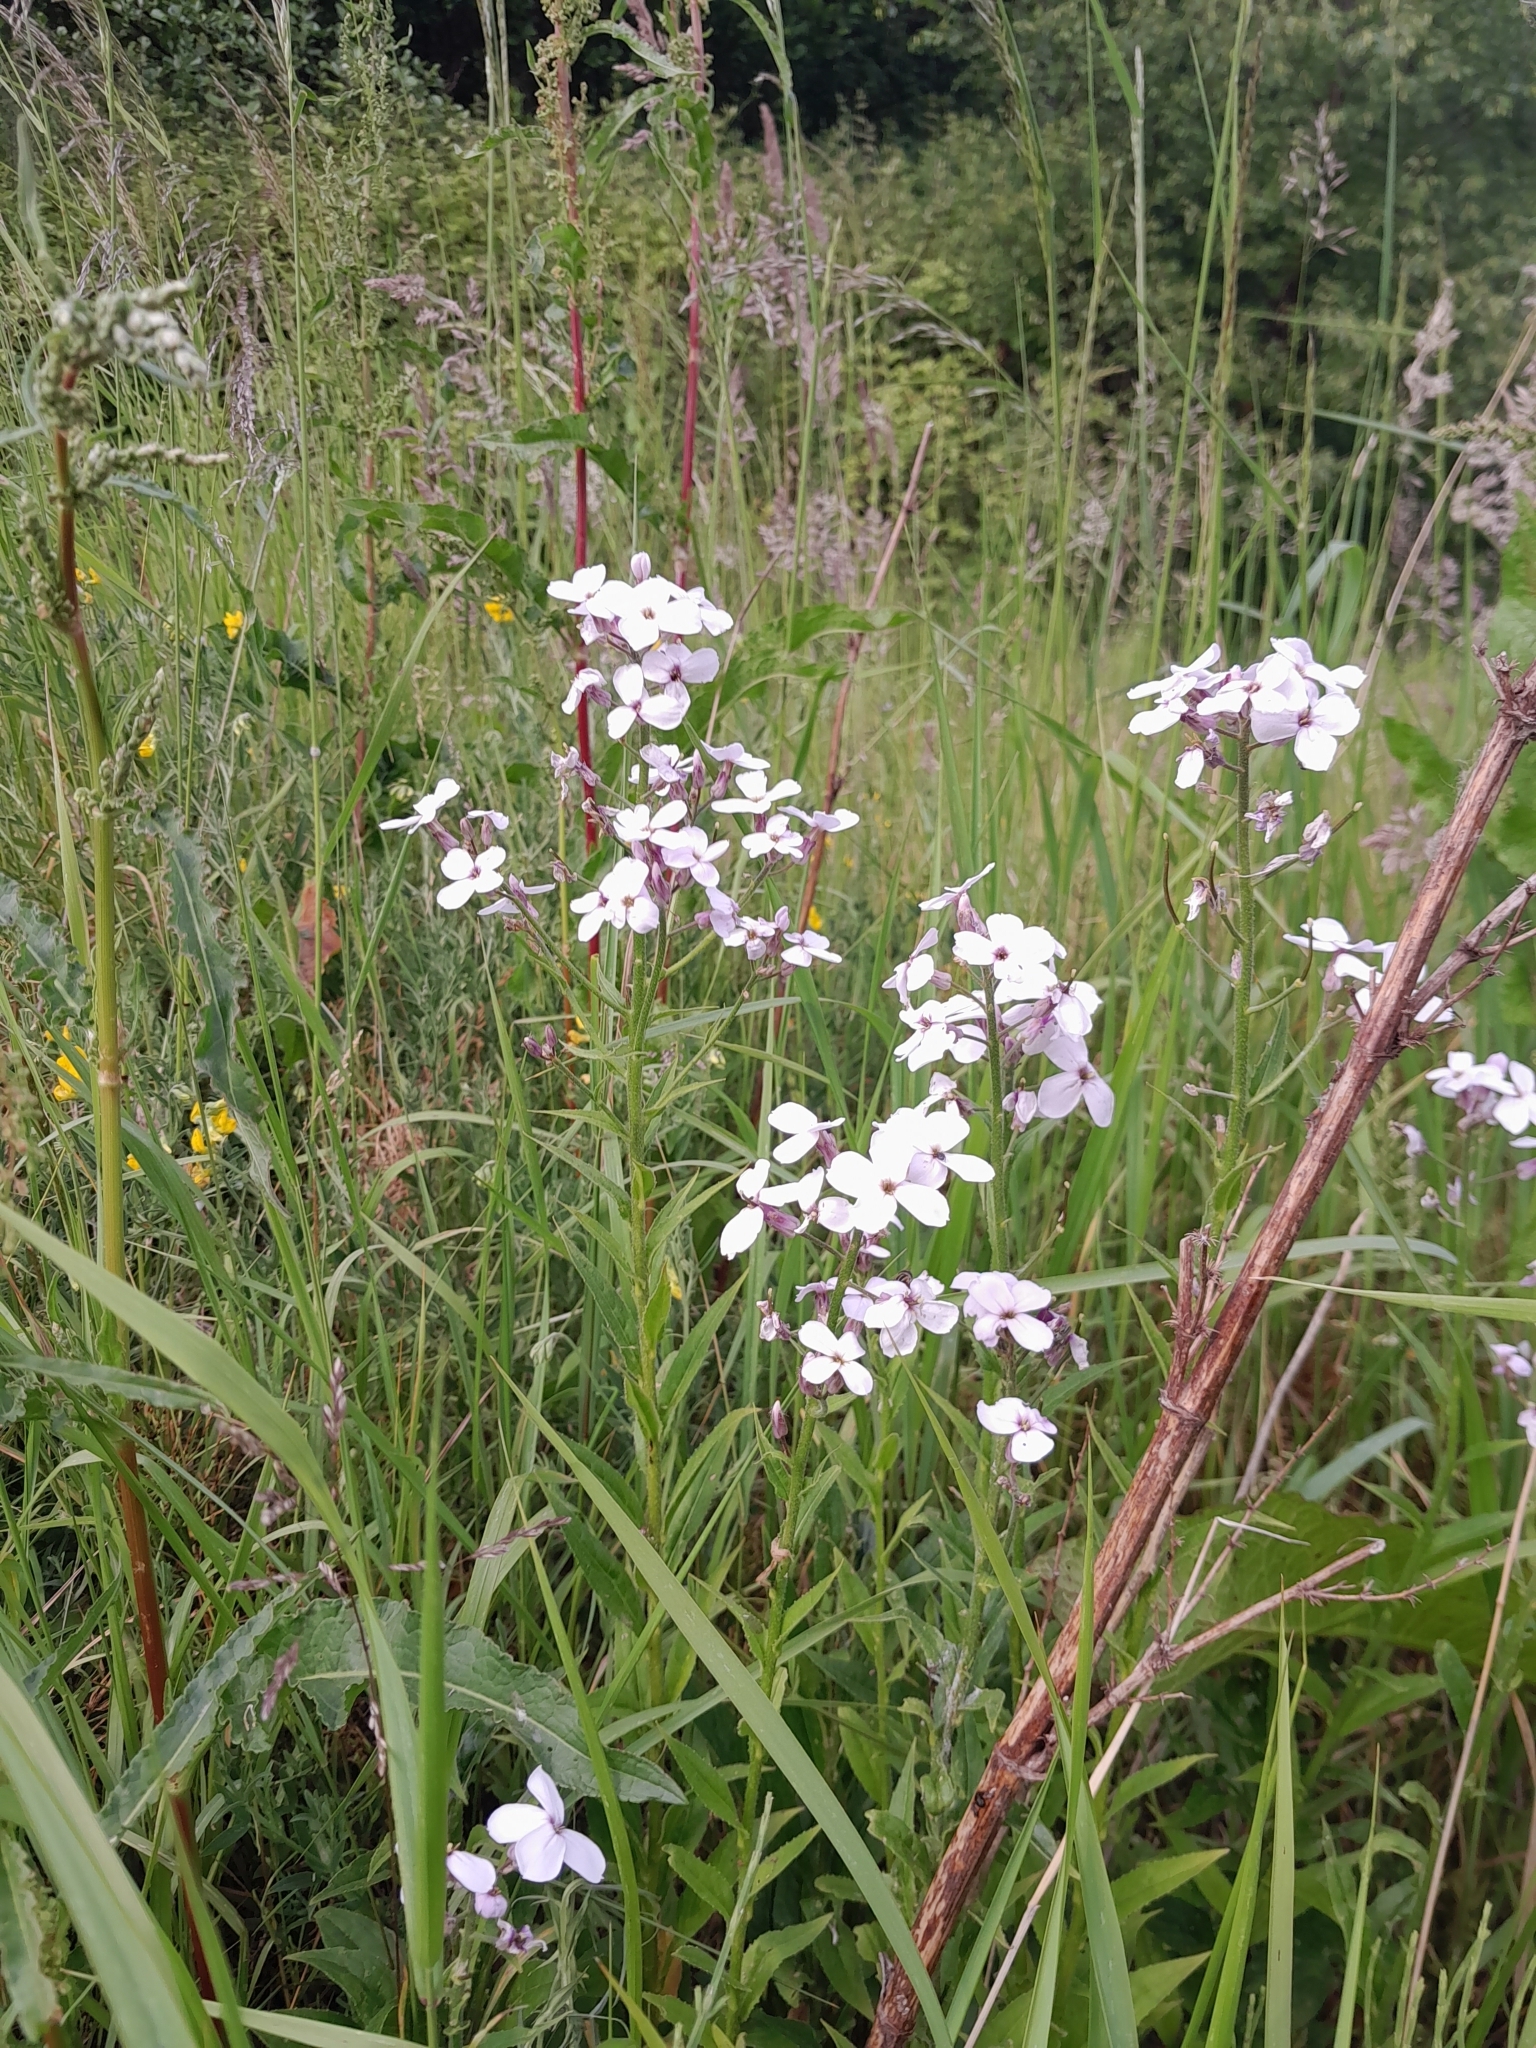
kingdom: Plantae
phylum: Tracheophyta
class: Magnoliopsida
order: Brassicales
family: Brassicaceae
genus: Hesperis
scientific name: Hesperis matronalis
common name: Dame's-violet
